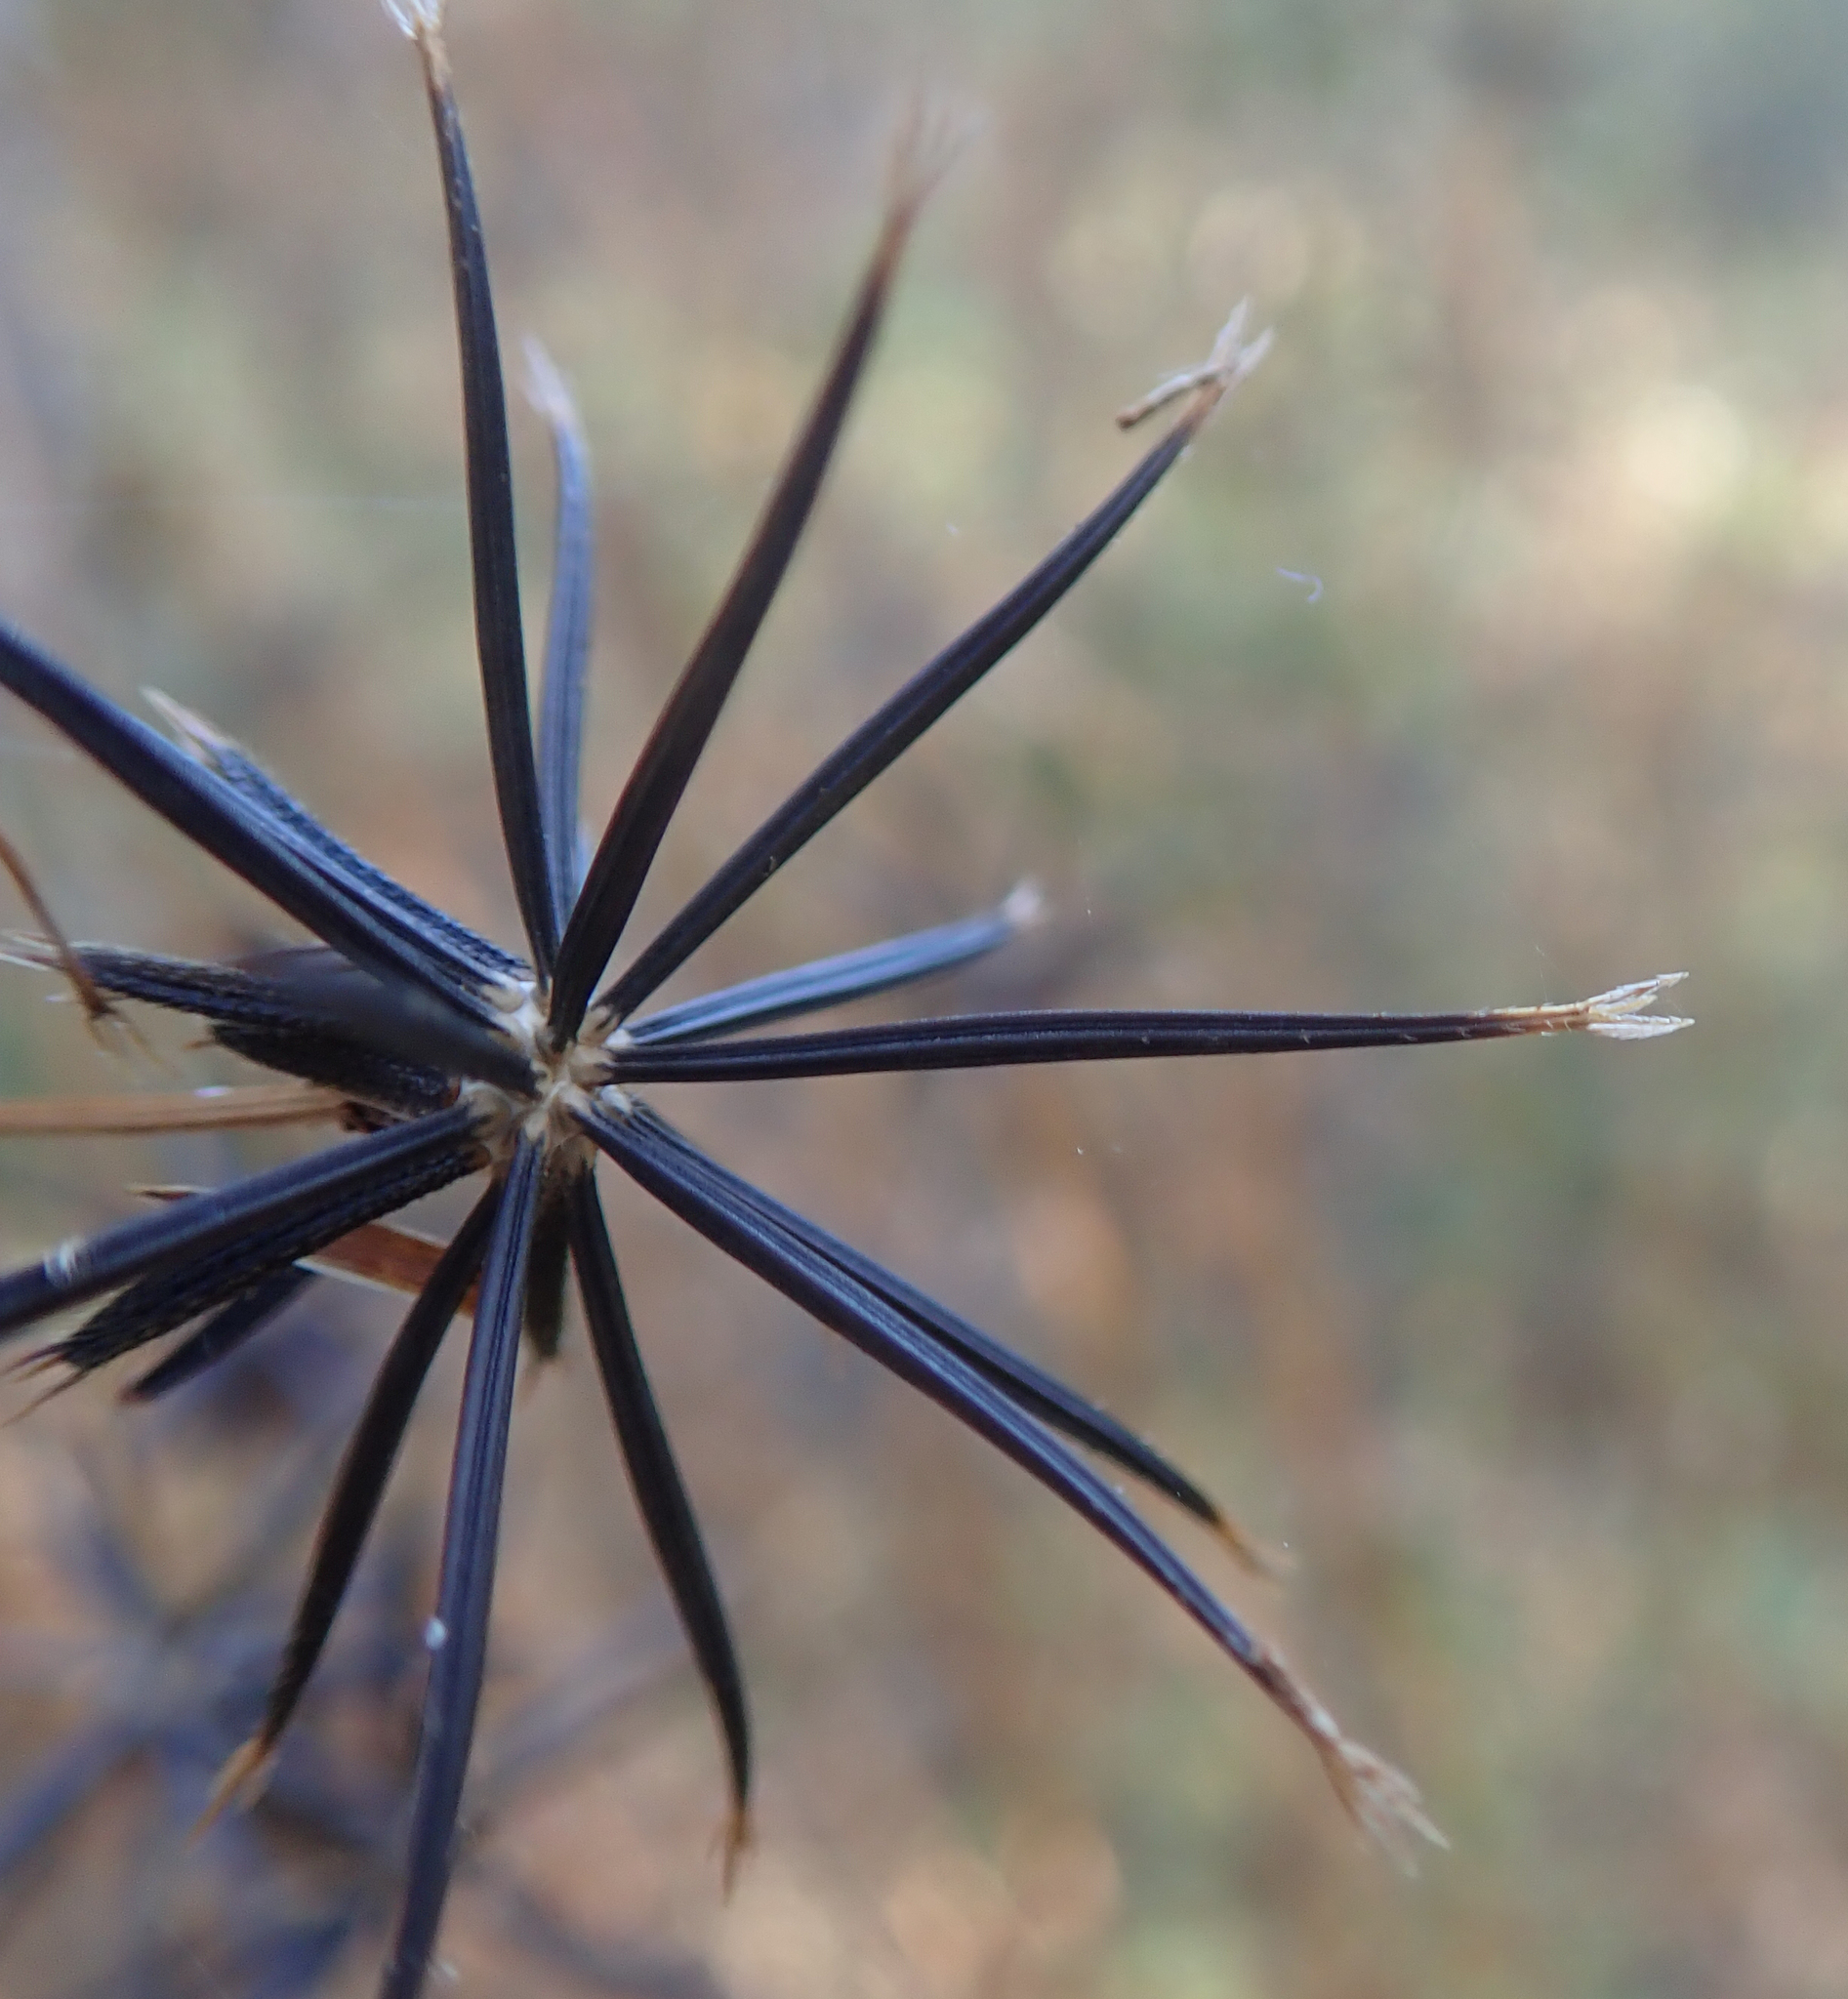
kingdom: Plantae
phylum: Tracheophyta
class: Magnoliopsida
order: Asterales
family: Asteraceae
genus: Bidens
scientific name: Bidens pilosa
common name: Black-jack
